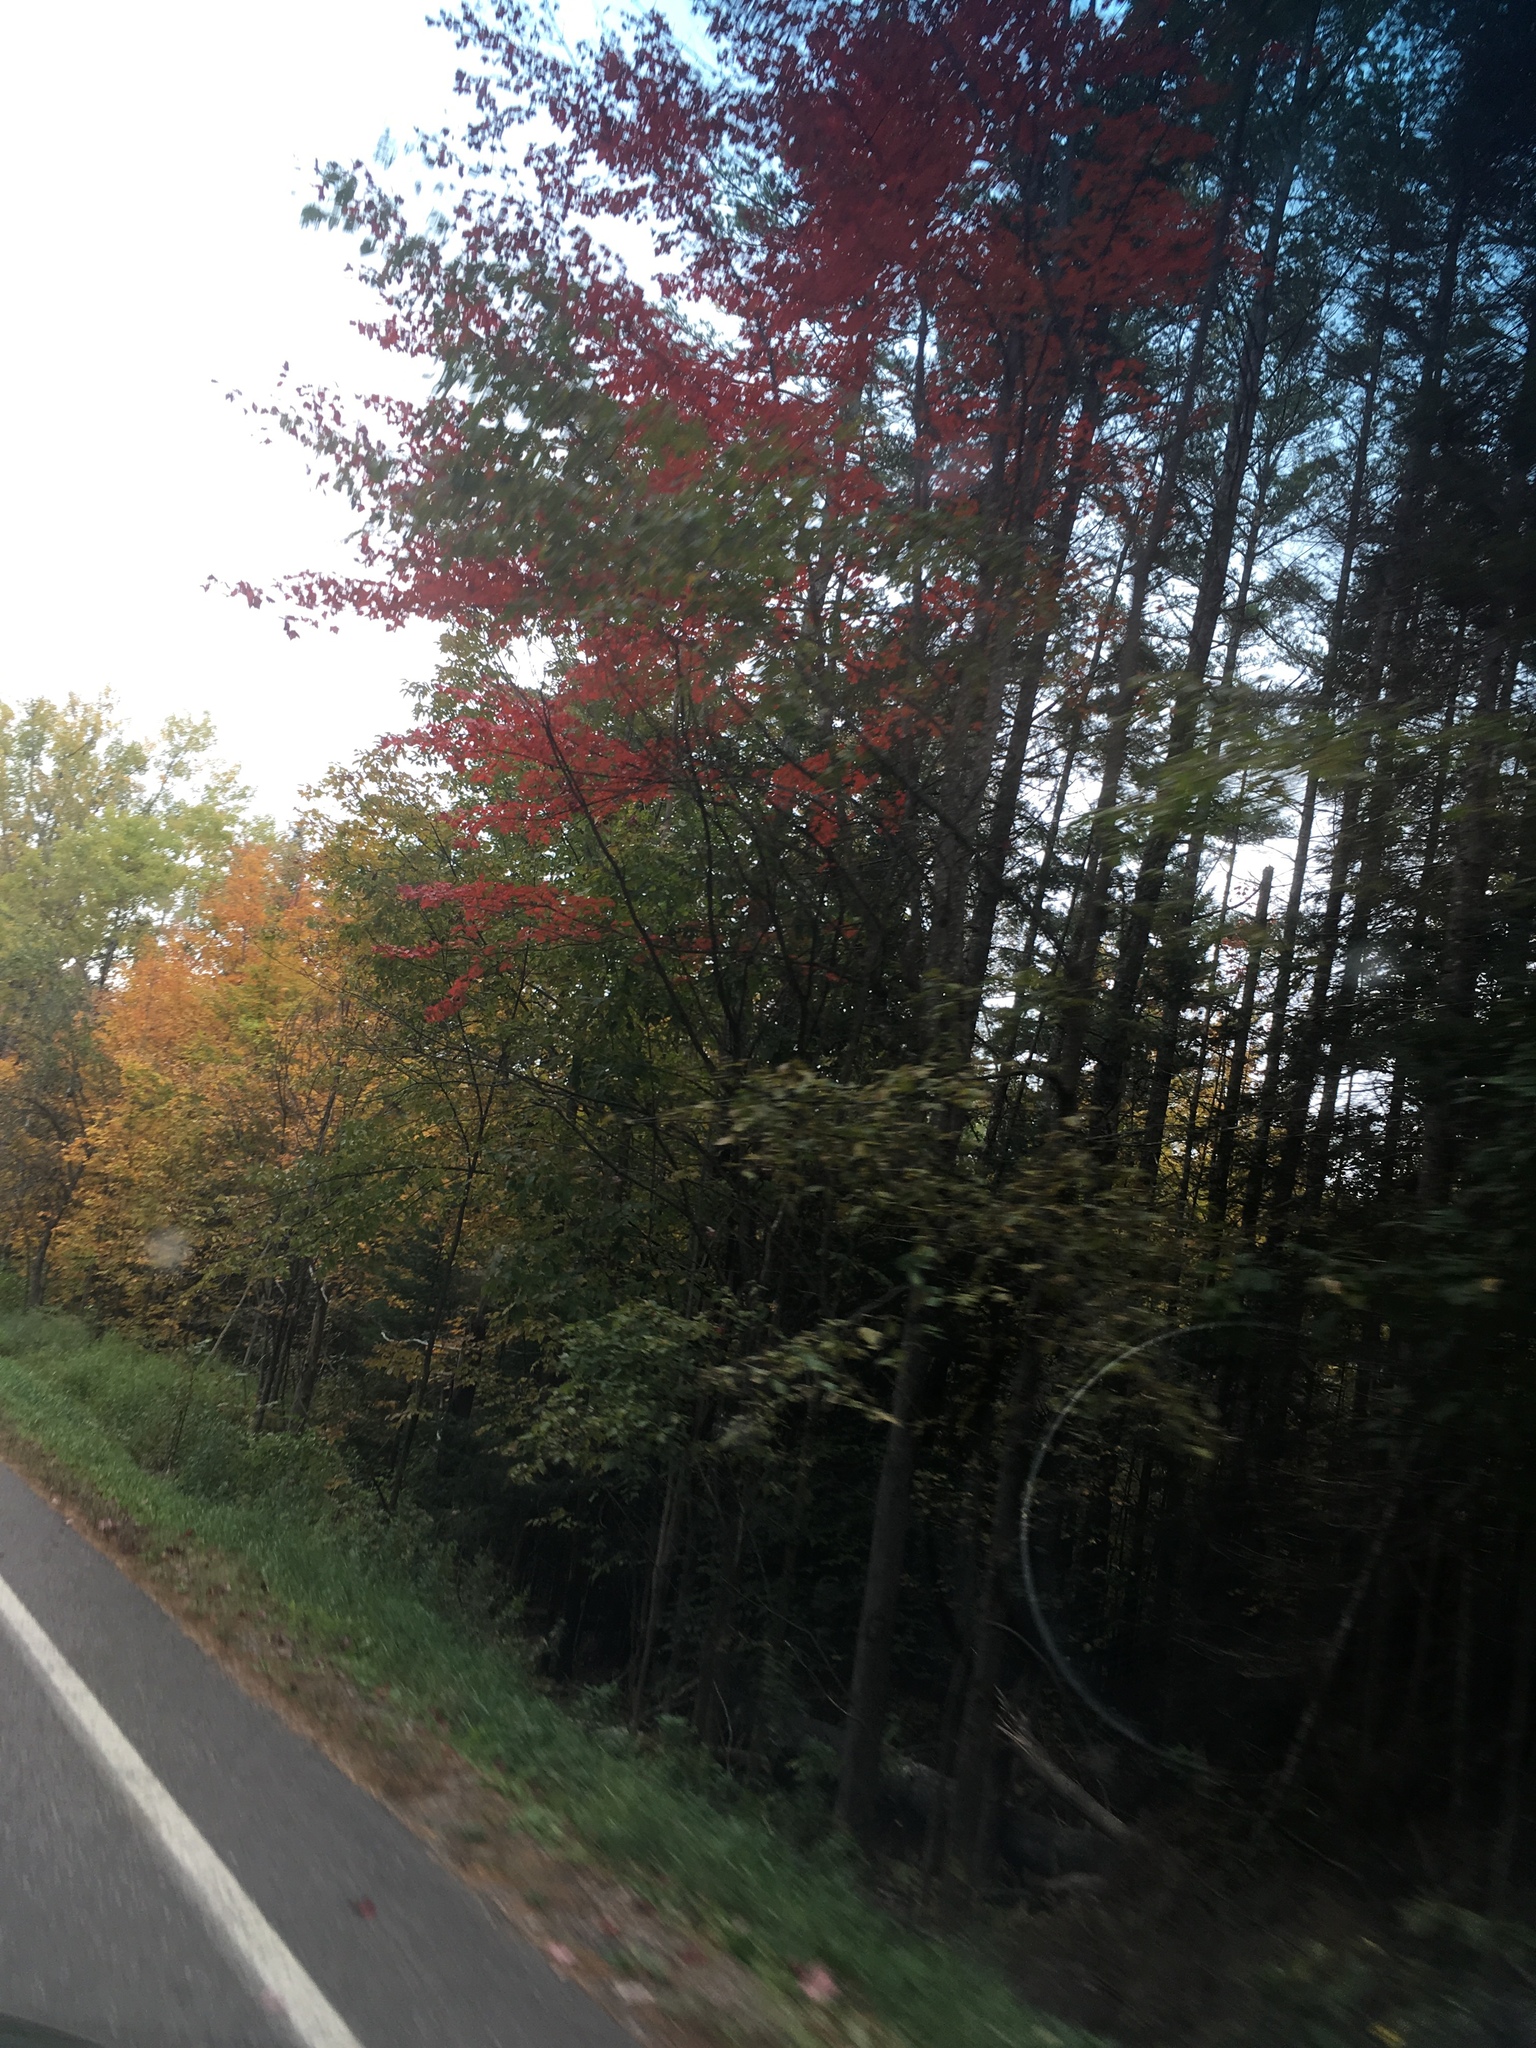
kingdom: Plantae
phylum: Tracheophyta
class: Magnoliopsida
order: Sapindales
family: Sapindaceae
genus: Acer
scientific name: Acer rubrum
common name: Red maple
